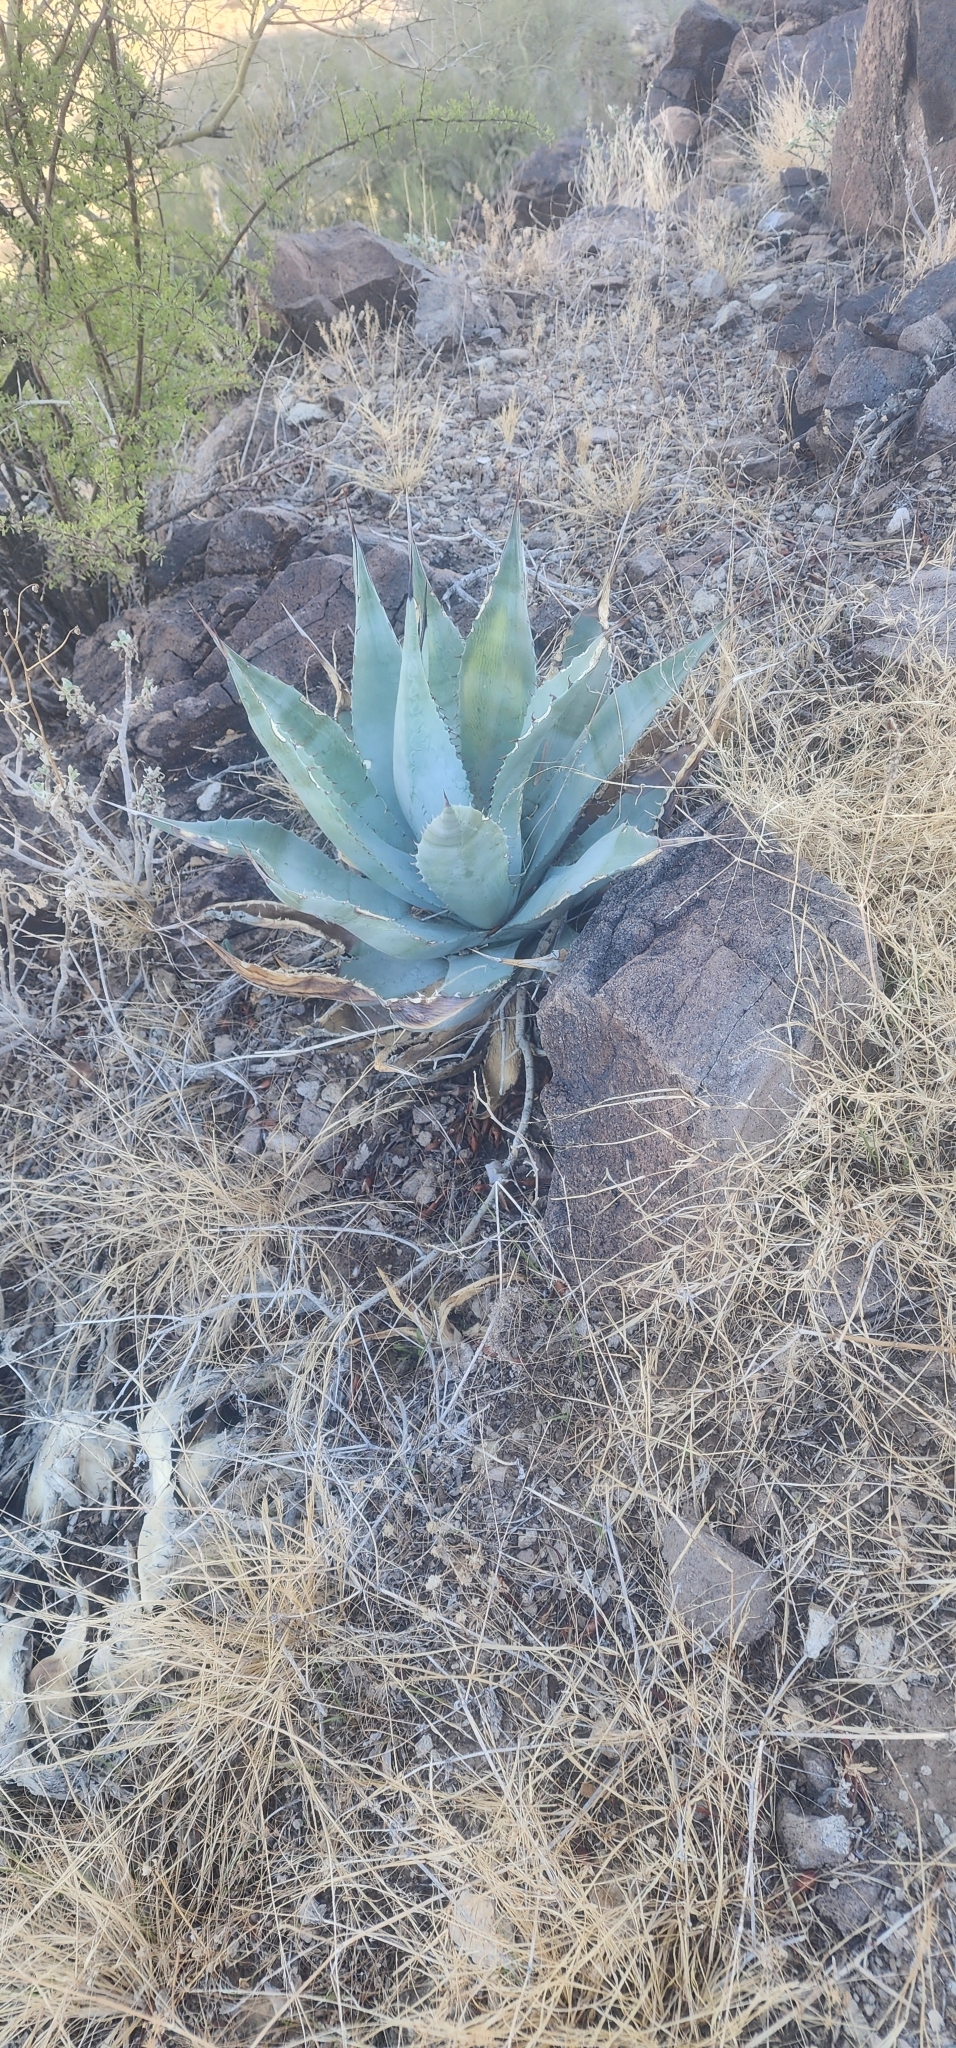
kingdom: Plantae
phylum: Tracheophyta
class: Liliopsida
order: Asparagales
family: Asparagaceae
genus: Agave
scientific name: Agave simplex
